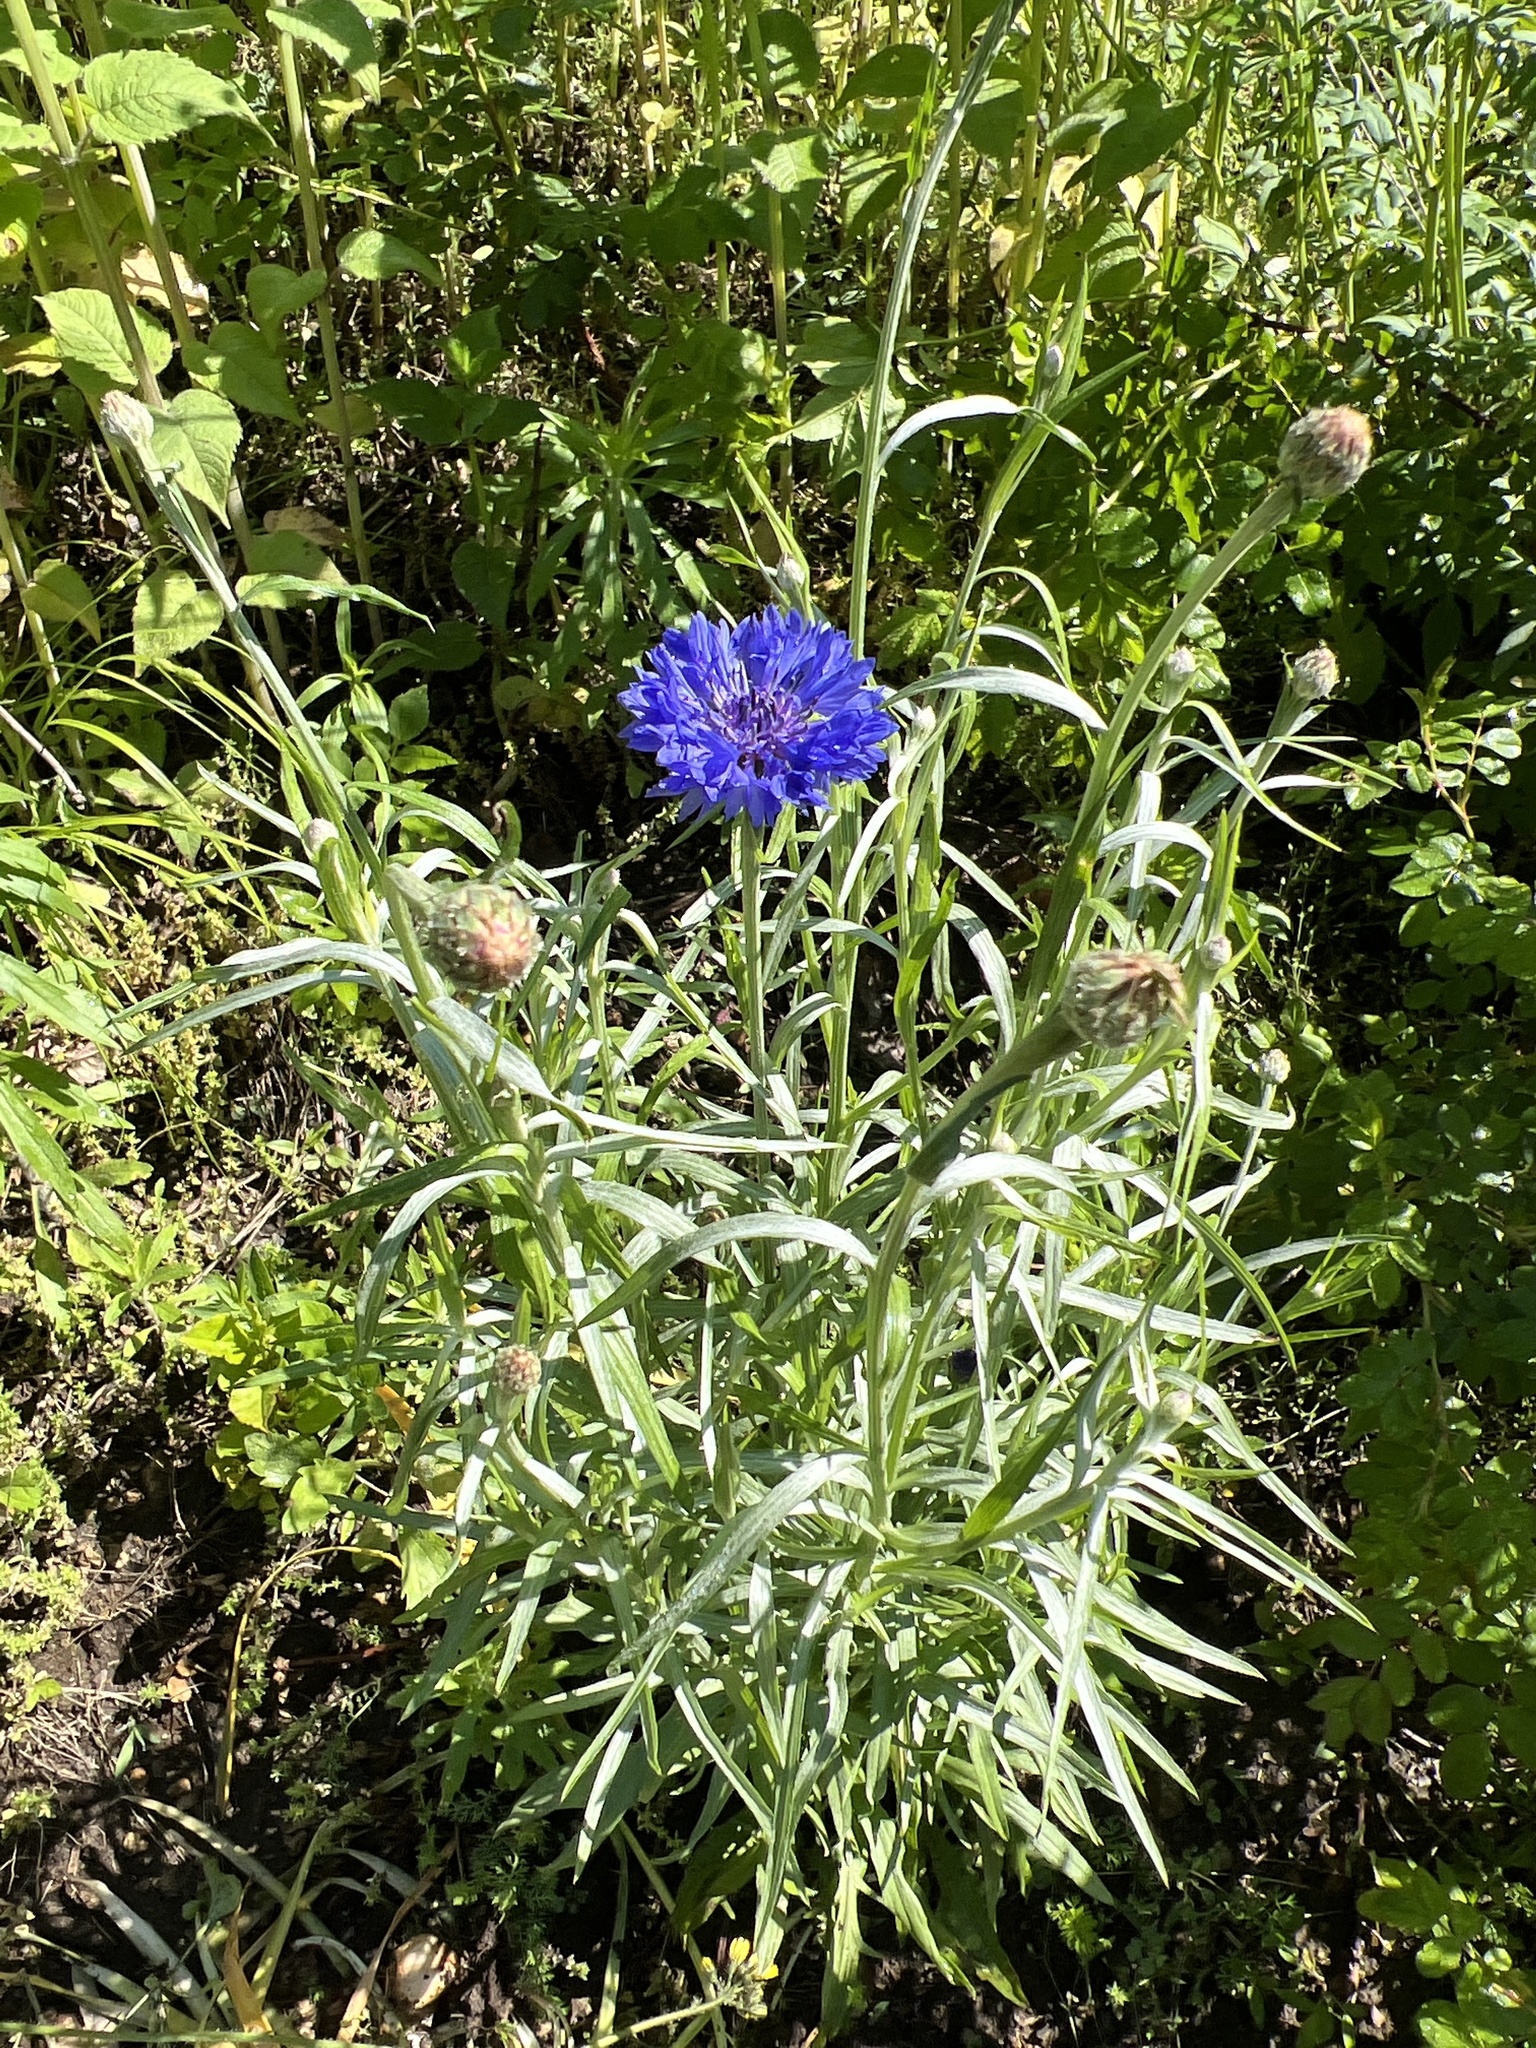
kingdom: Plantae
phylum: Tracheophyta
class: Magnoliopsida
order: Asterales
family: Asteraceae
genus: Centaurea
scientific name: Centaurea cyanus
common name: Cornflower
